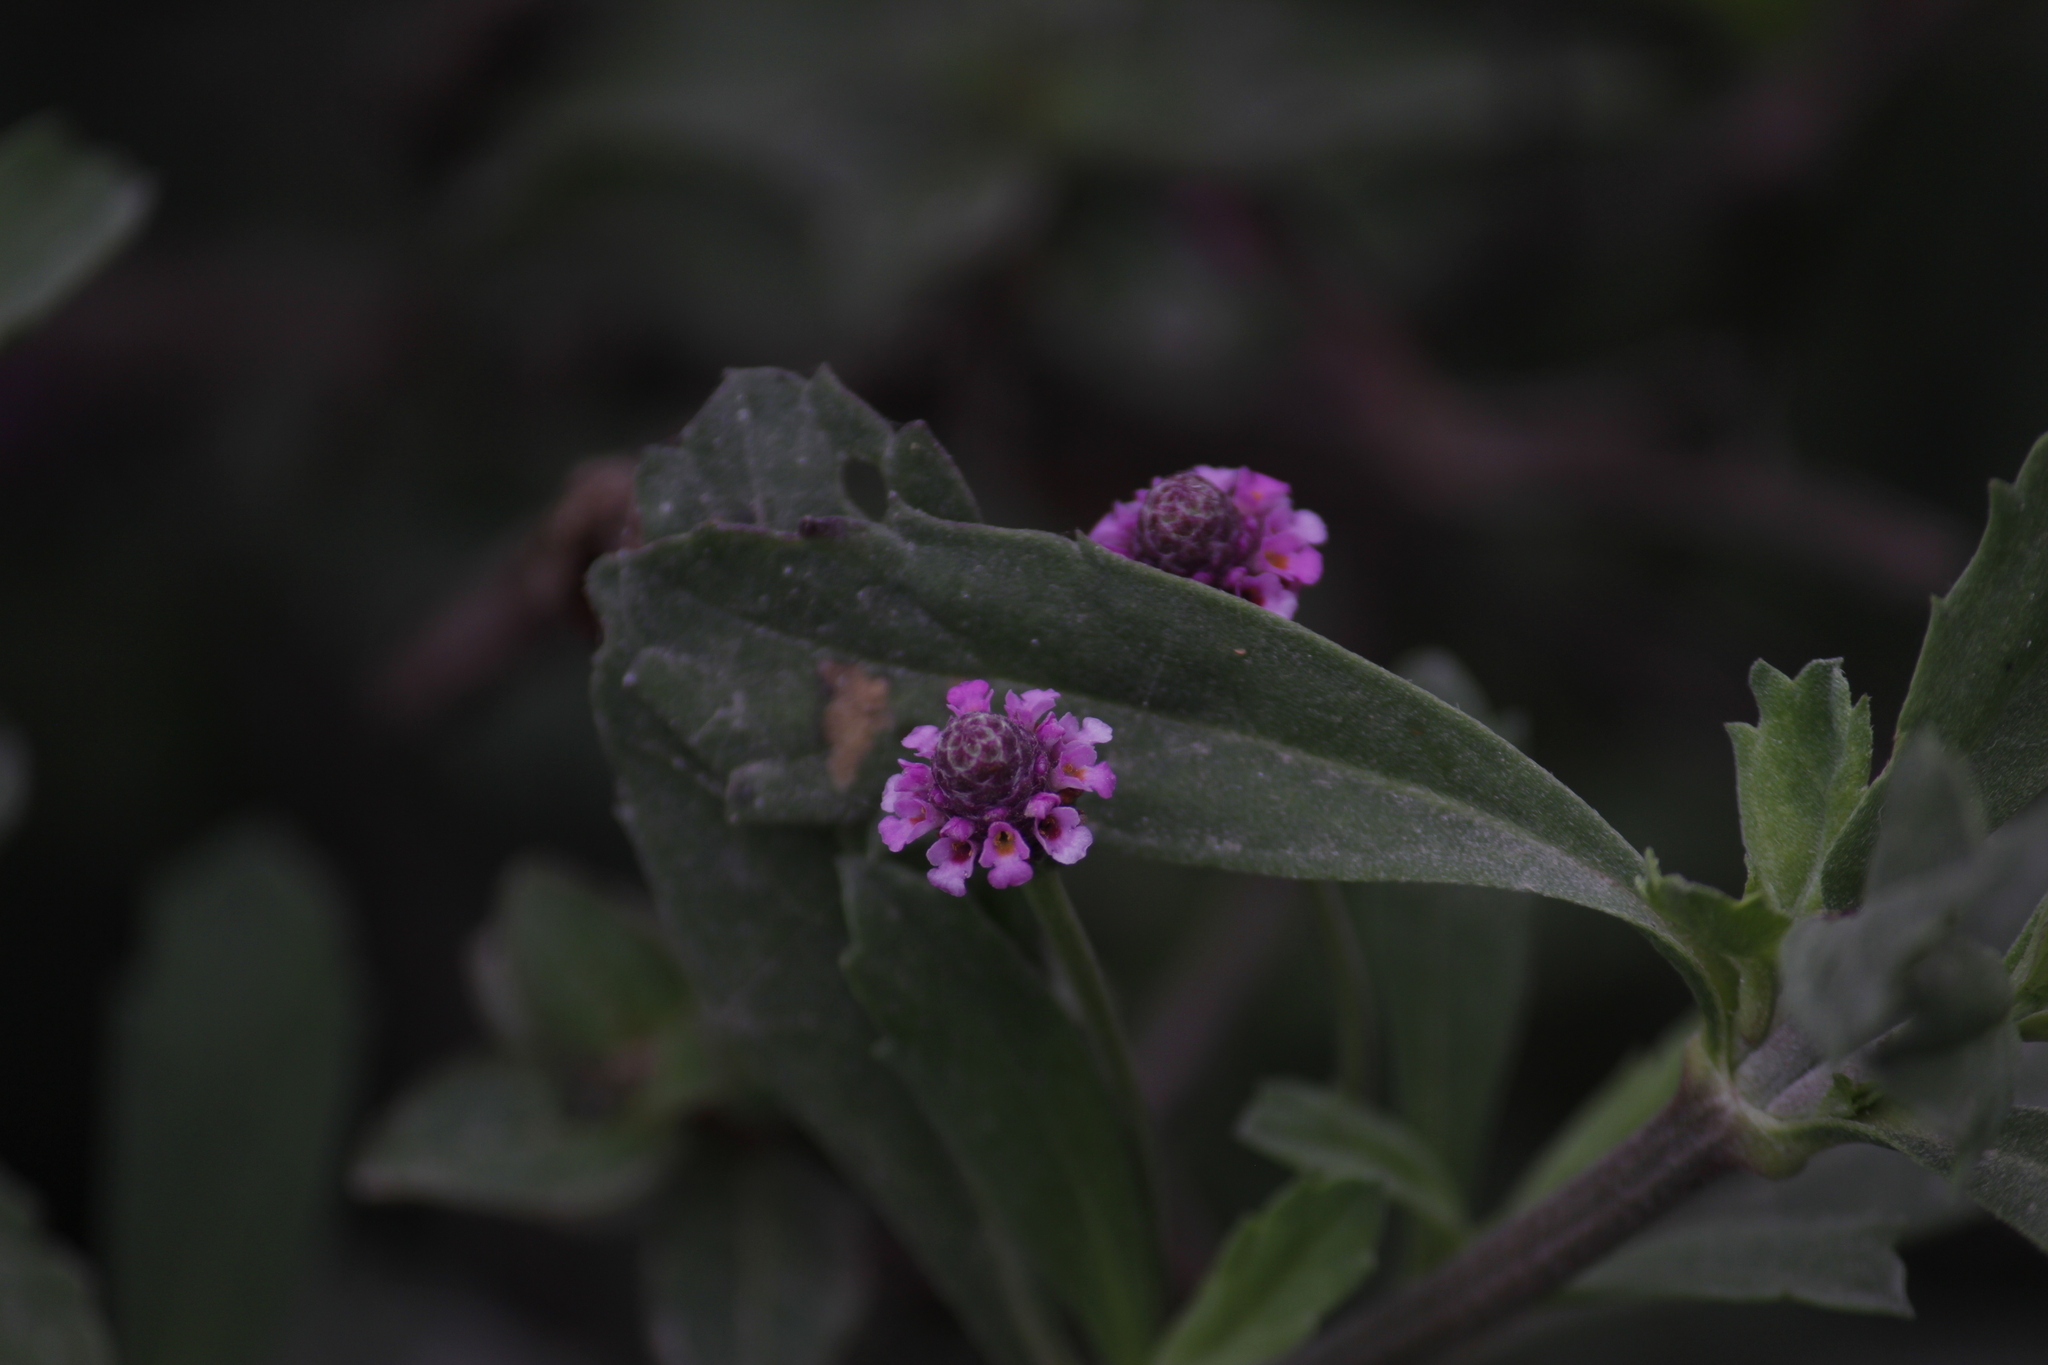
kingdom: Plantae
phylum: Tracheophyta
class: Magnoliopsida
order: Lamiales
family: Verbenaceae
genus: Phyla
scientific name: Phyla nodiflora
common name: Frogfruit
